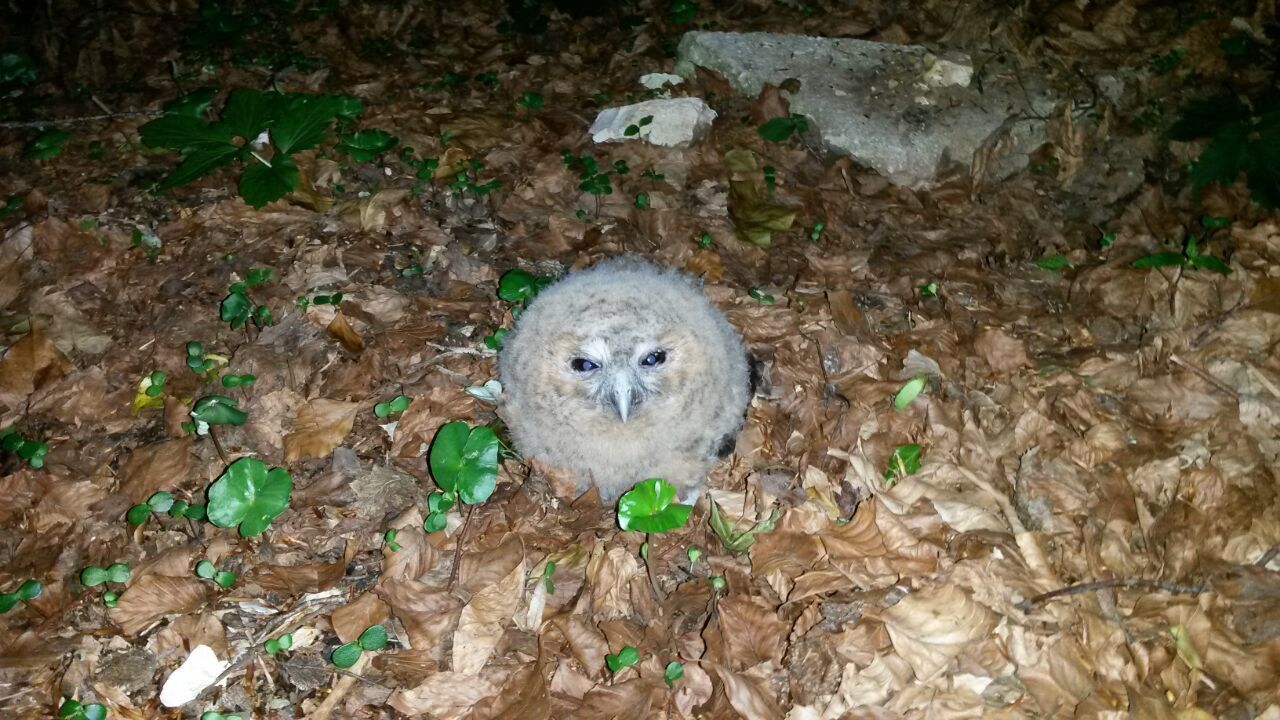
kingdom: Animalia
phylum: Chordata
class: Aves
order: Strigiformes
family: Strigidae
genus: Strix
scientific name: Strix aluco
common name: Tawny owl
